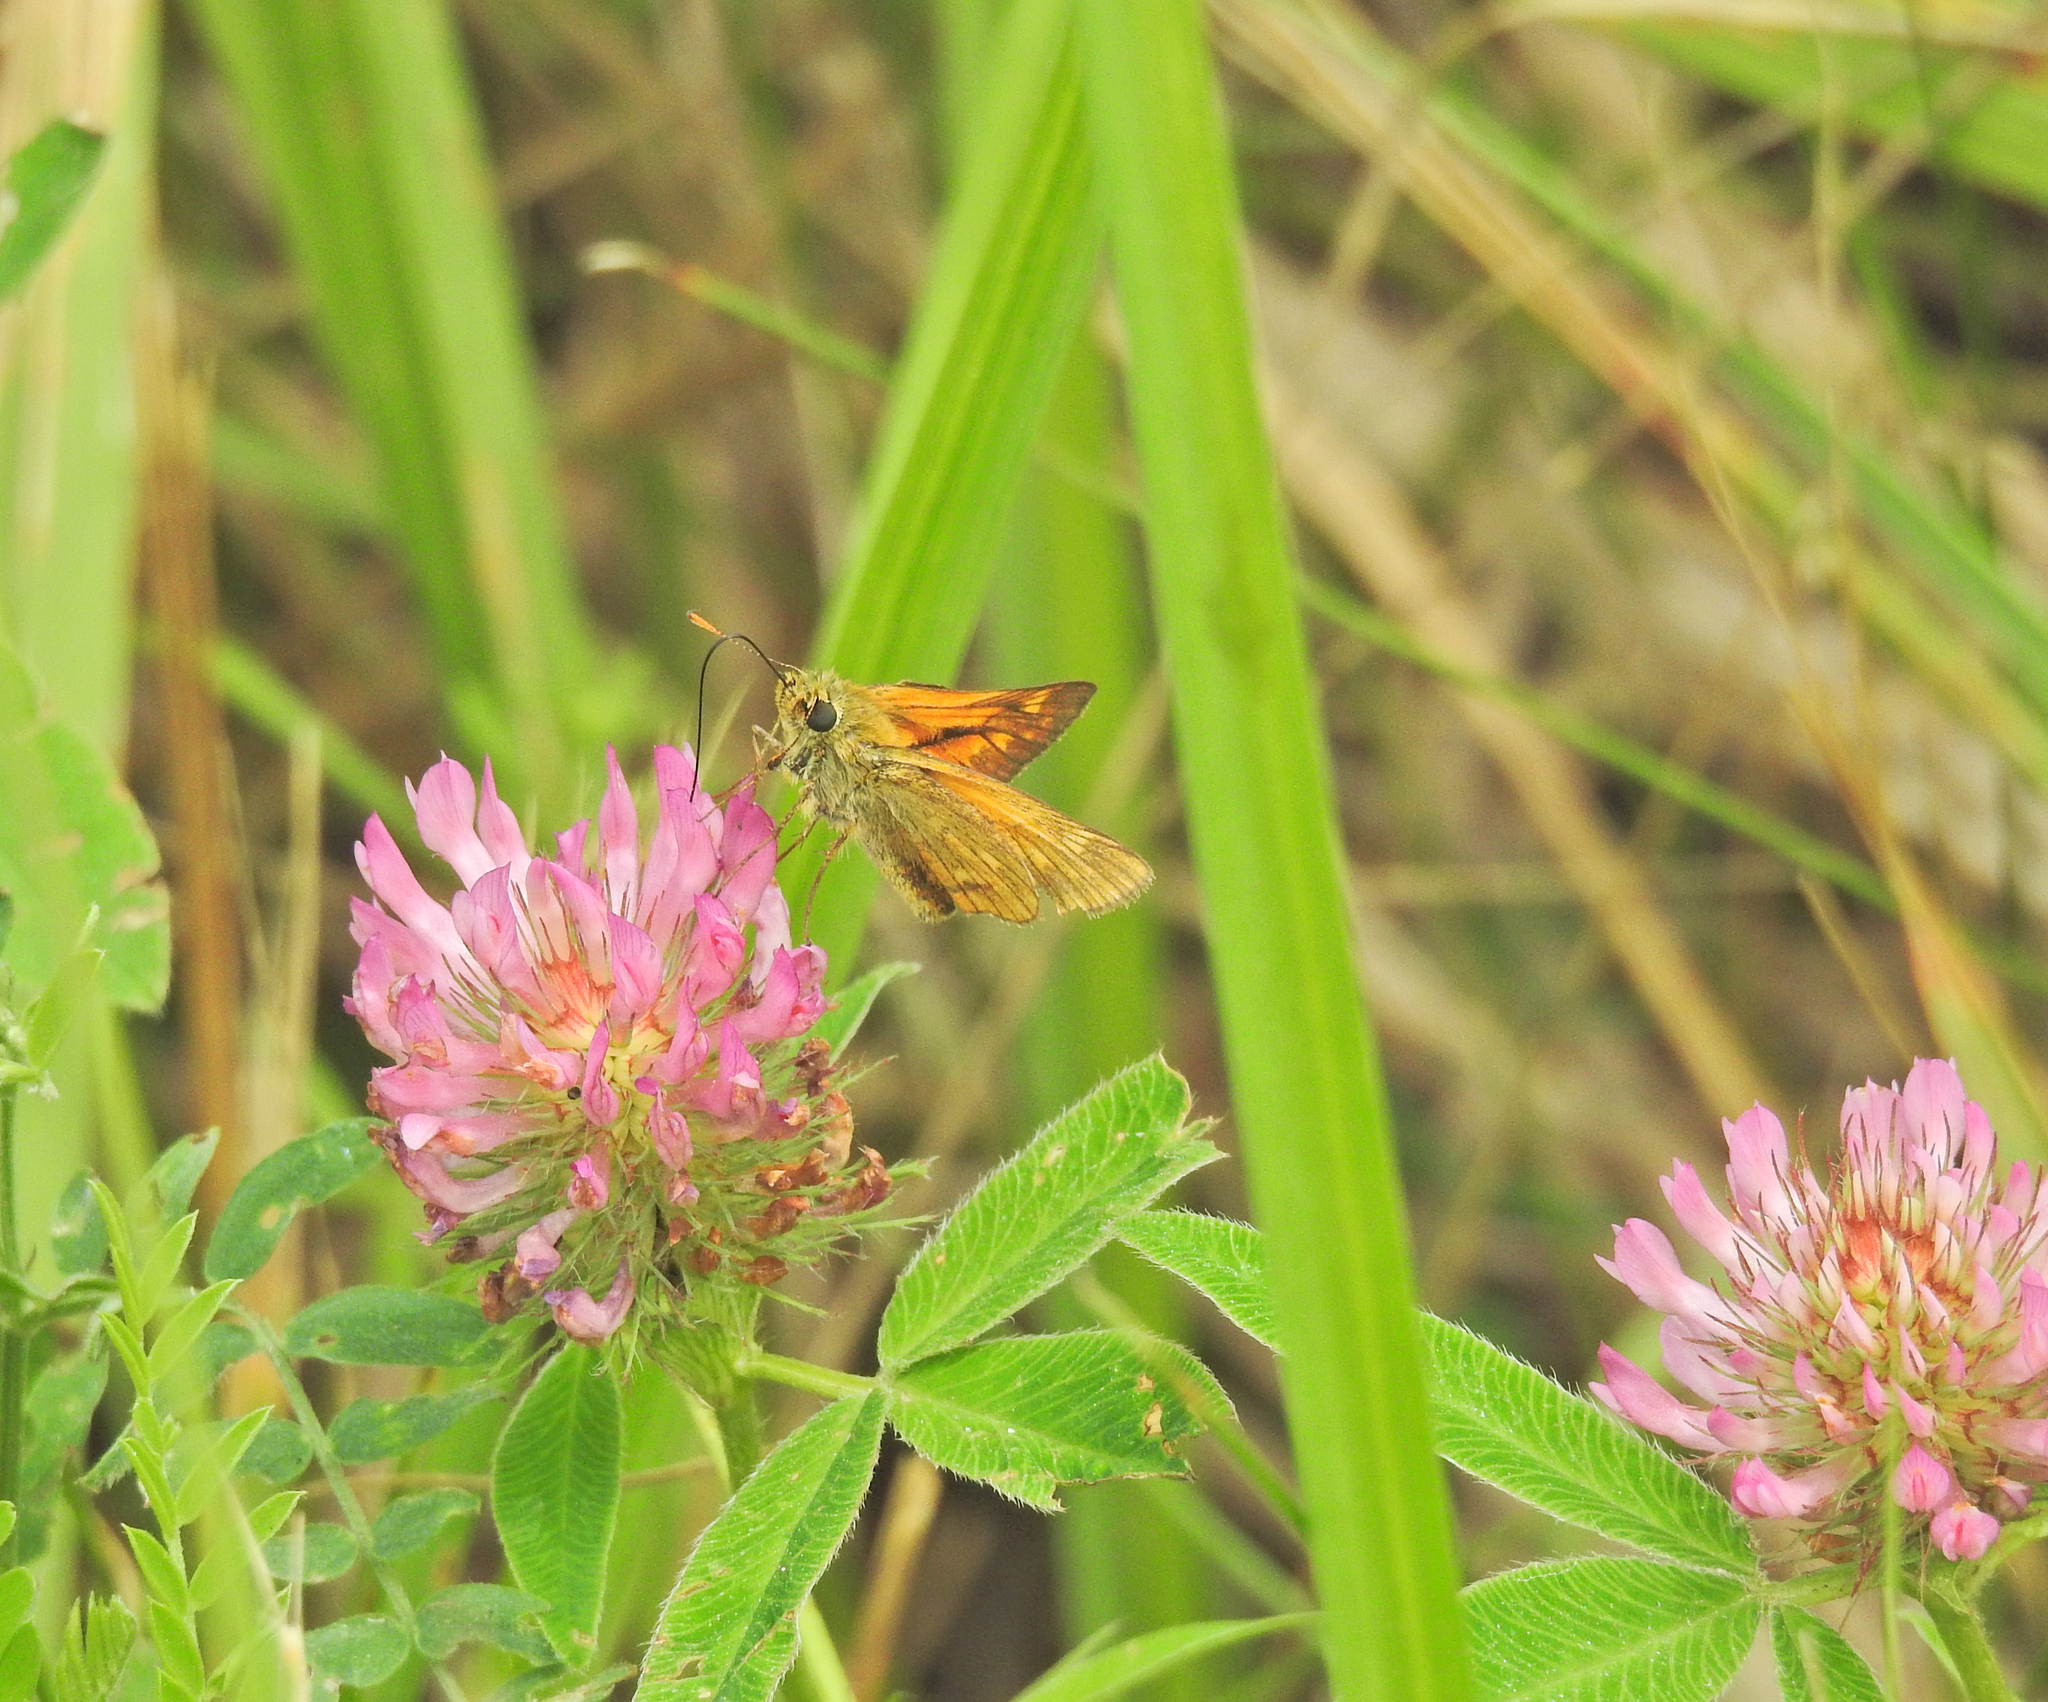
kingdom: Animalia
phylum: Arthropoda
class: Insecta
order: Lepidoptera
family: Hesperiidae
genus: Ochlodes
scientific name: Ochlodes venata
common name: Large skipper
